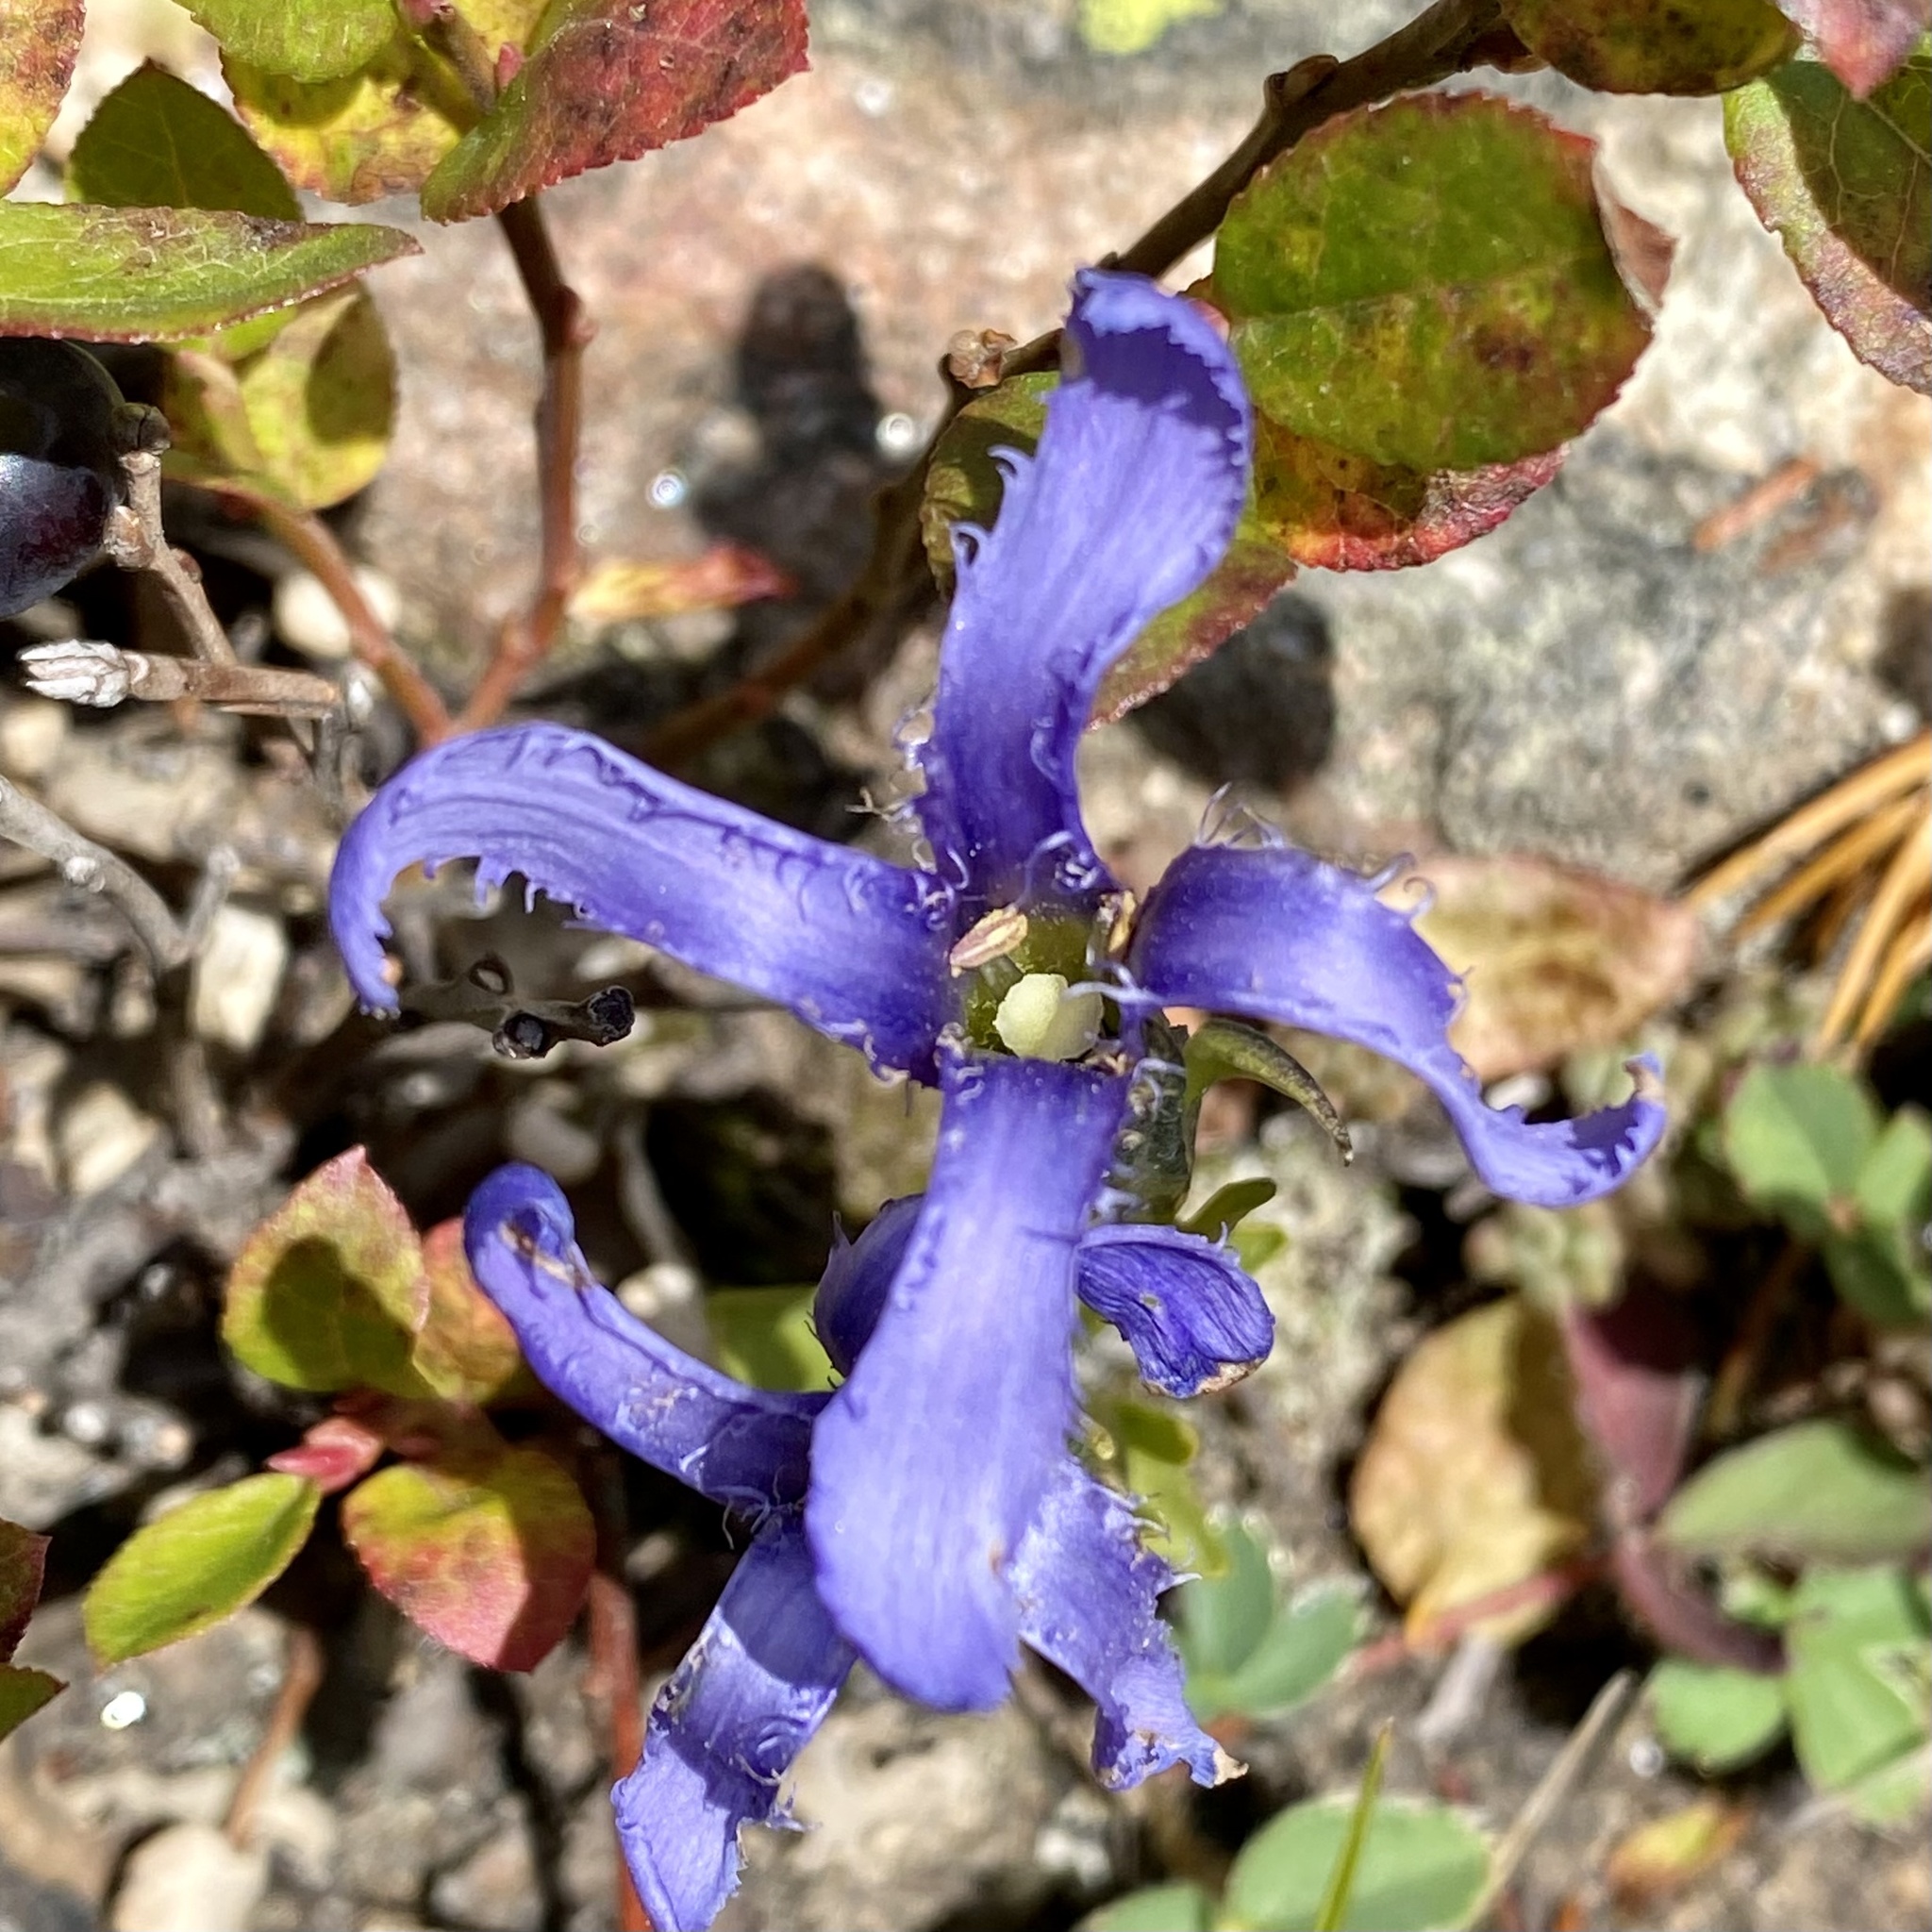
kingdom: Plantae
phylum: Tracheophyta
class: Magnoliopsida
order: Gentianales
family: Gentianaceae
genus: Gentianopsis
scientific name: Gentianopsis barbellata
